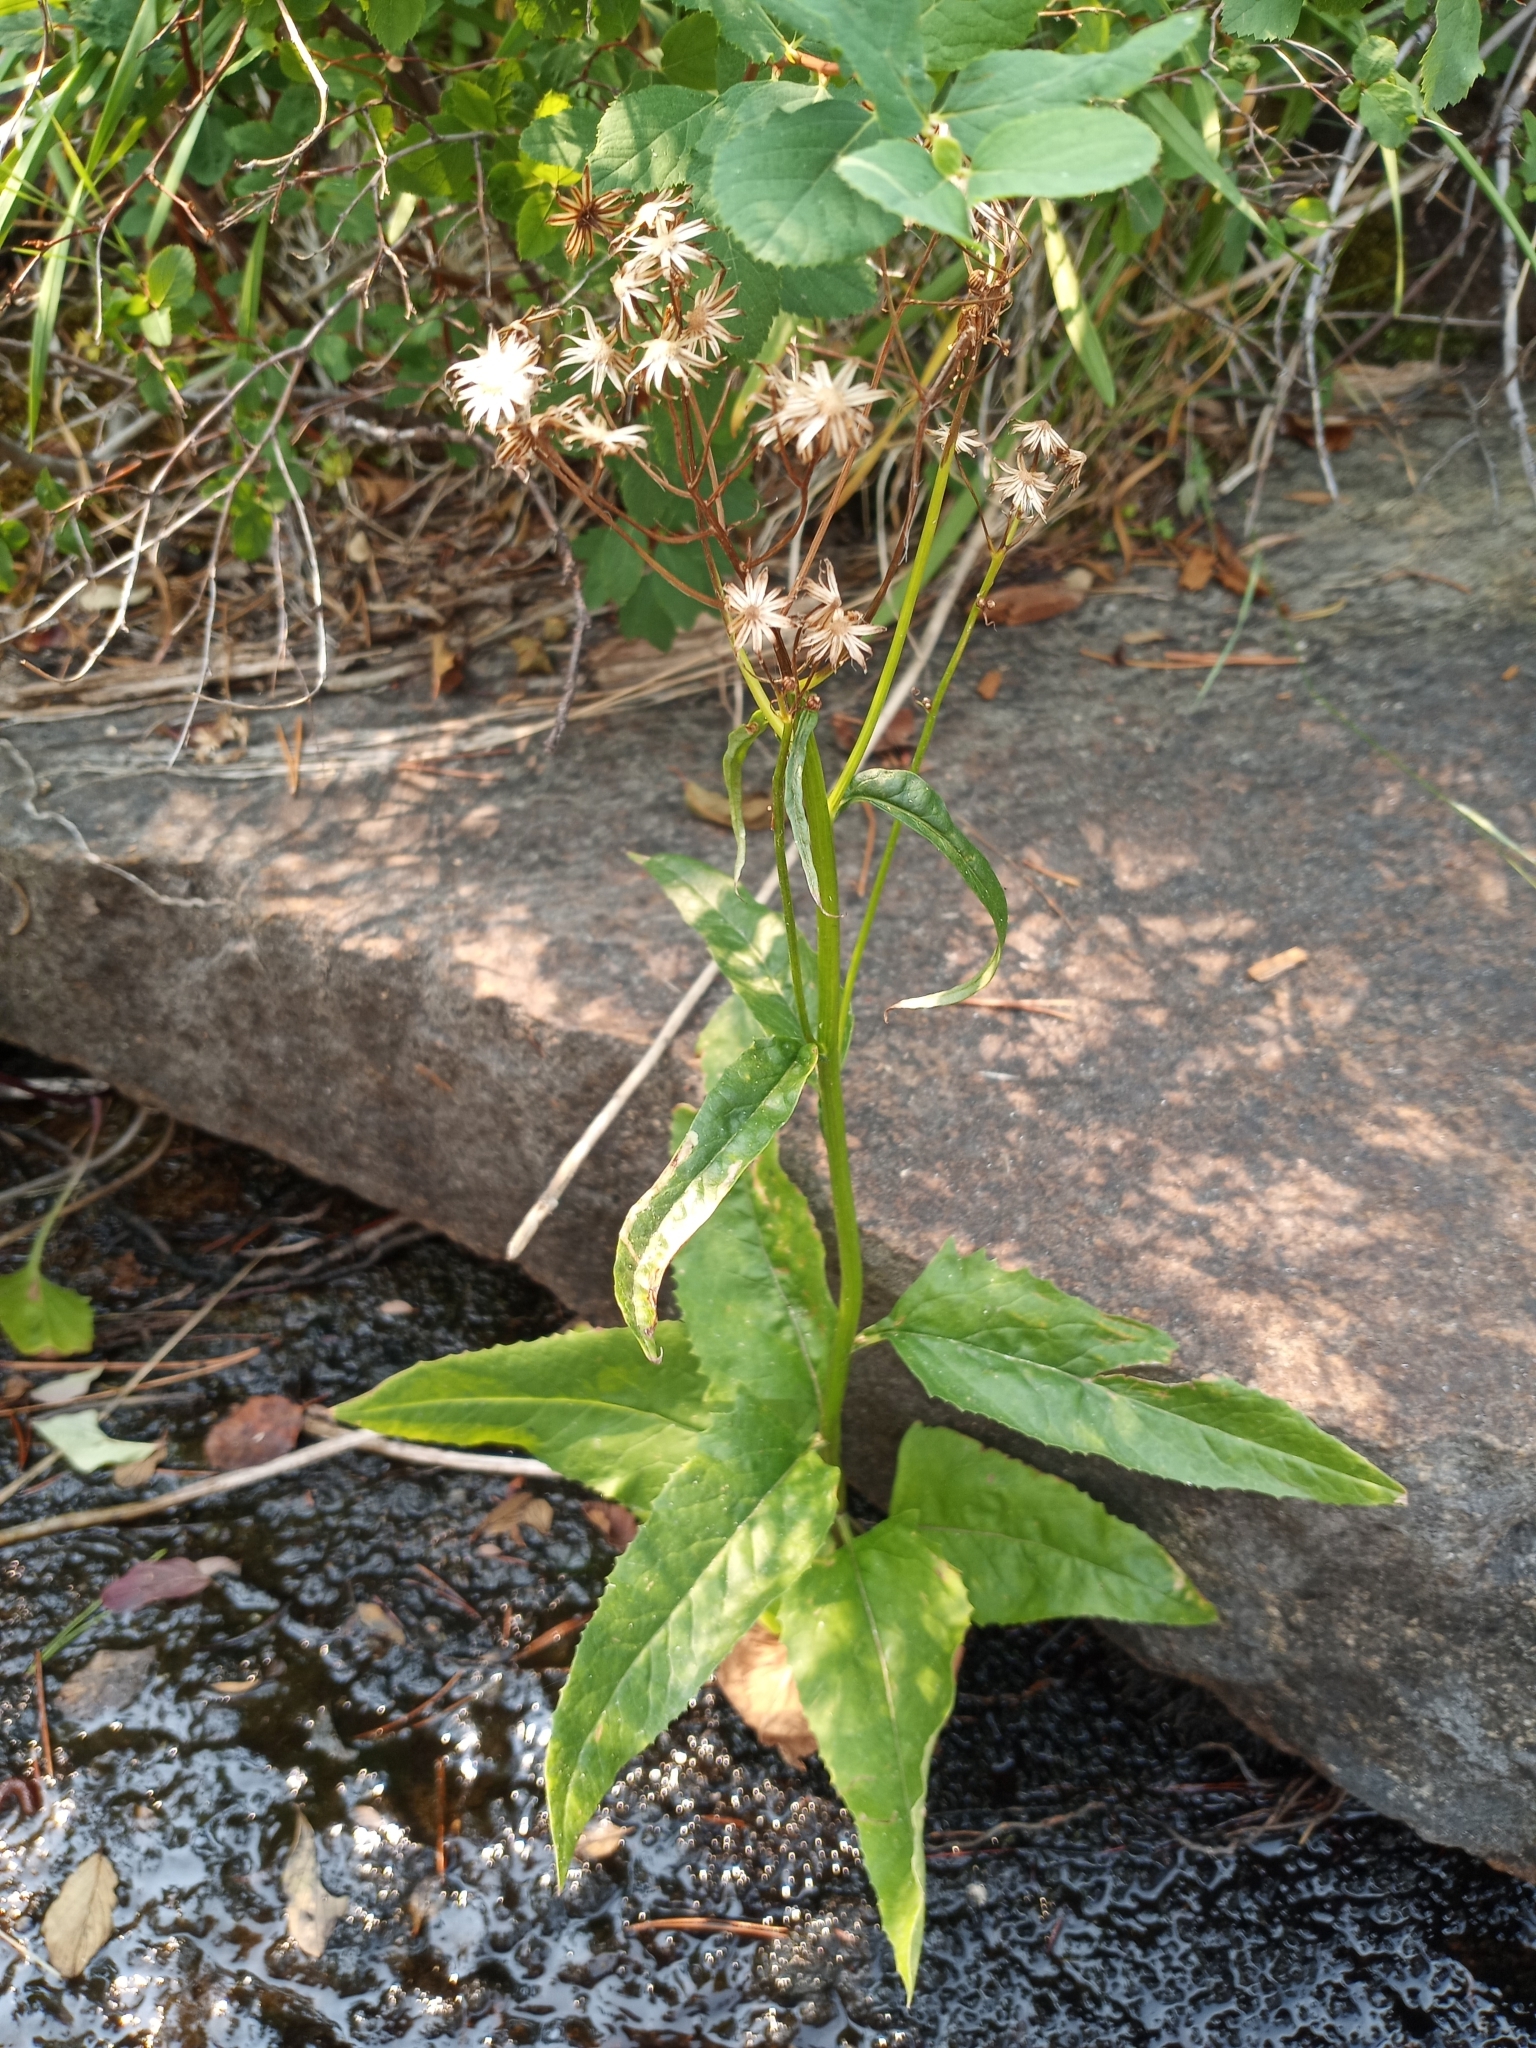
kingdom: Plantae
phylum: Tracheophyta
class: Magnoliopsida
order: Asterales
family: Asteraceae
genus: Senecio
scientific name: Senecio triangularis
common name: Arrowleaf butterweed
